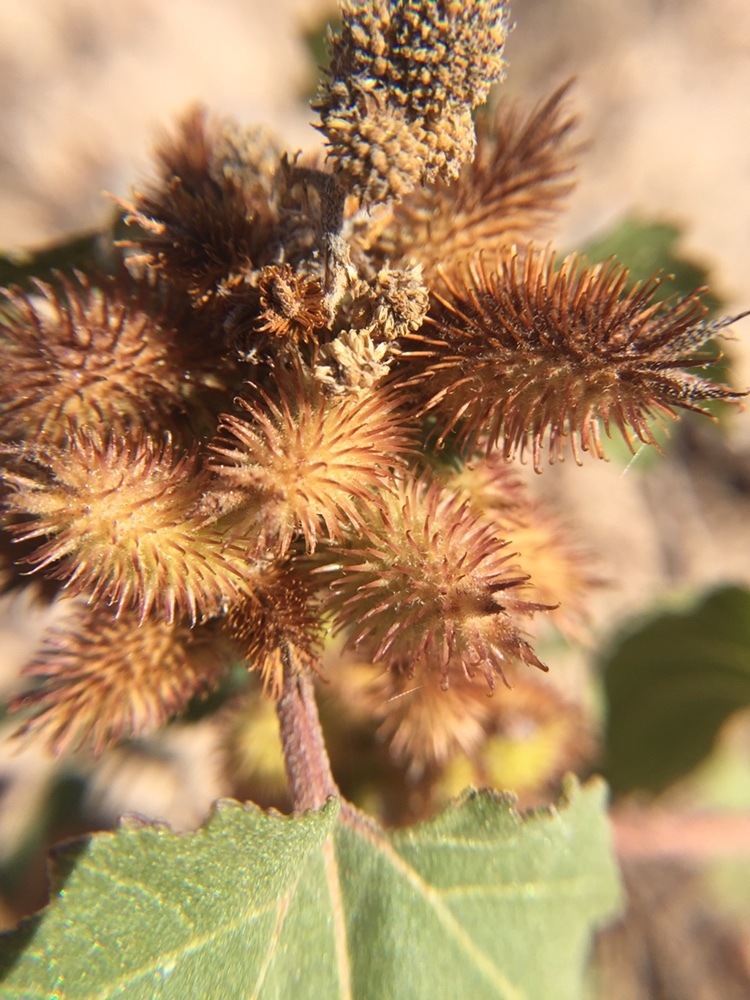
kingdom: Plantae
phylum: Tracheophyta
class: Magnoliopsida
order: Asterales
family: Asteraceae
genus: Xanthium
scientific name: Xanthium strumarium
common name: Rough cocklebur
